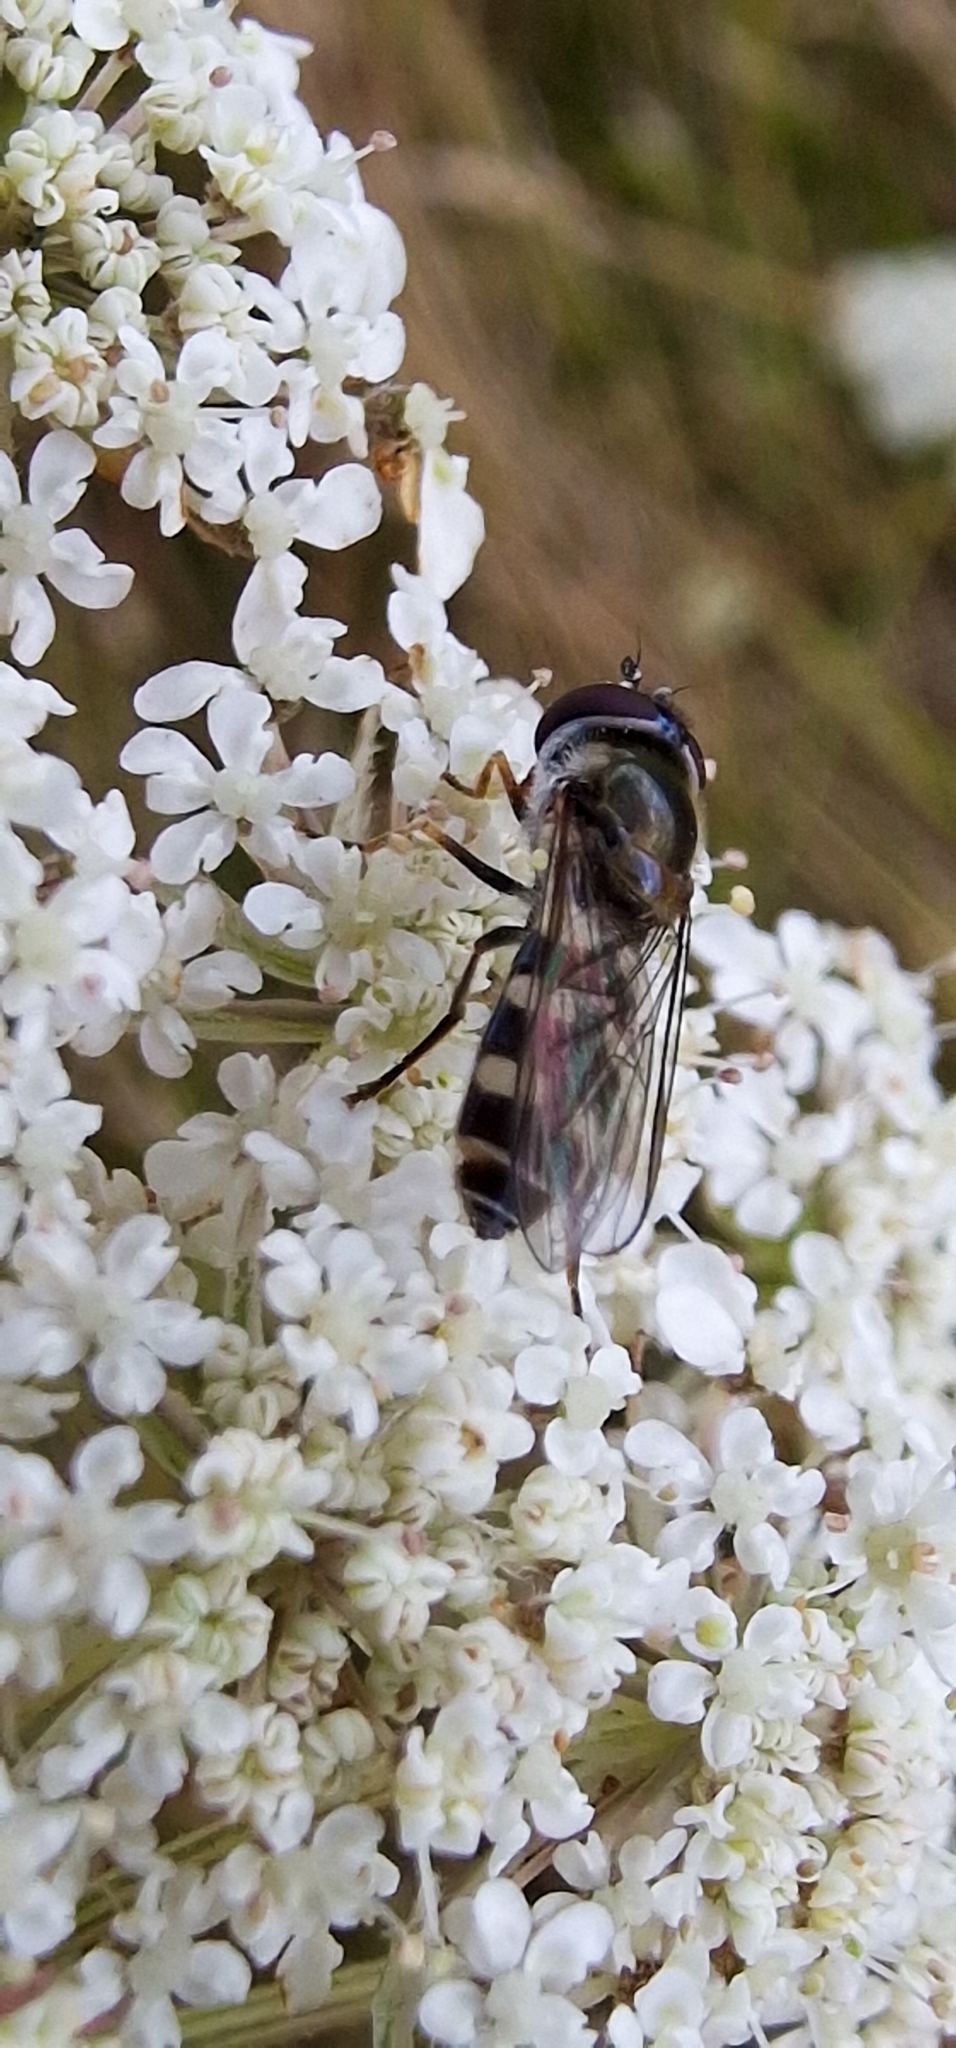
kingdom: Animalia
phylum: Arthropoda
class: Insecta
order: Diptera
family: Syrphidae
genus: Melangyna
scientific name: Melangyna umbellatarum
